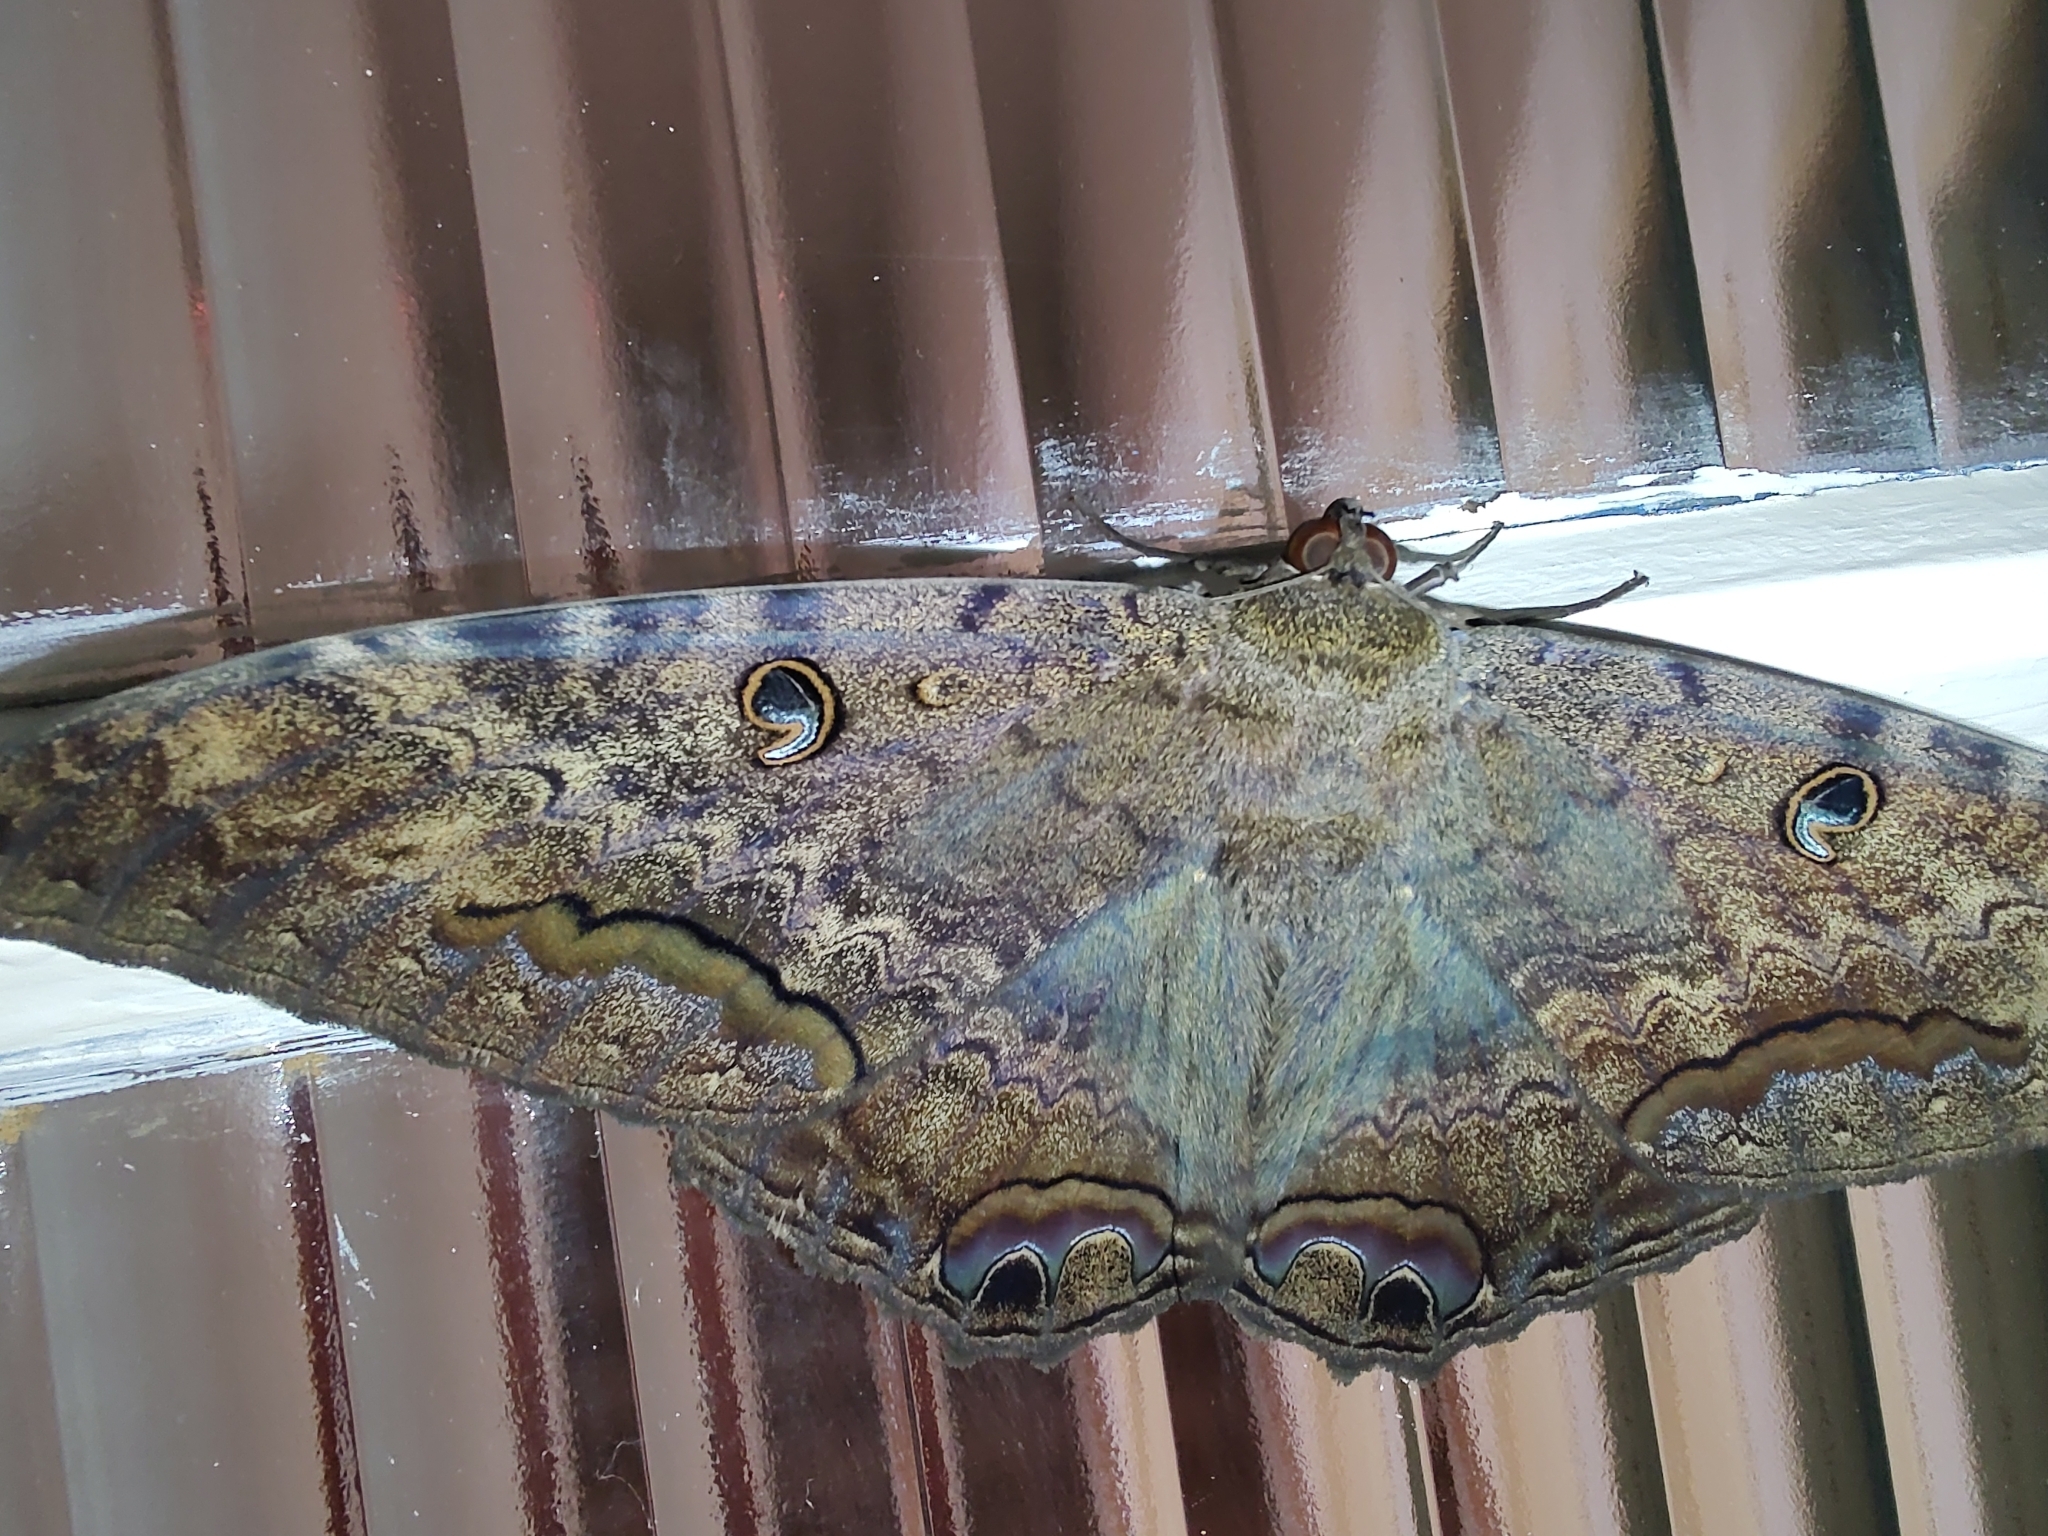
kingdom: Animalia
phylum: Arthropoda
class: Insecta
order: Lepidoptera
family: Erebidae
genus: Ascalapha
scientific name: Ascalapha odorata
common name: Black witch
